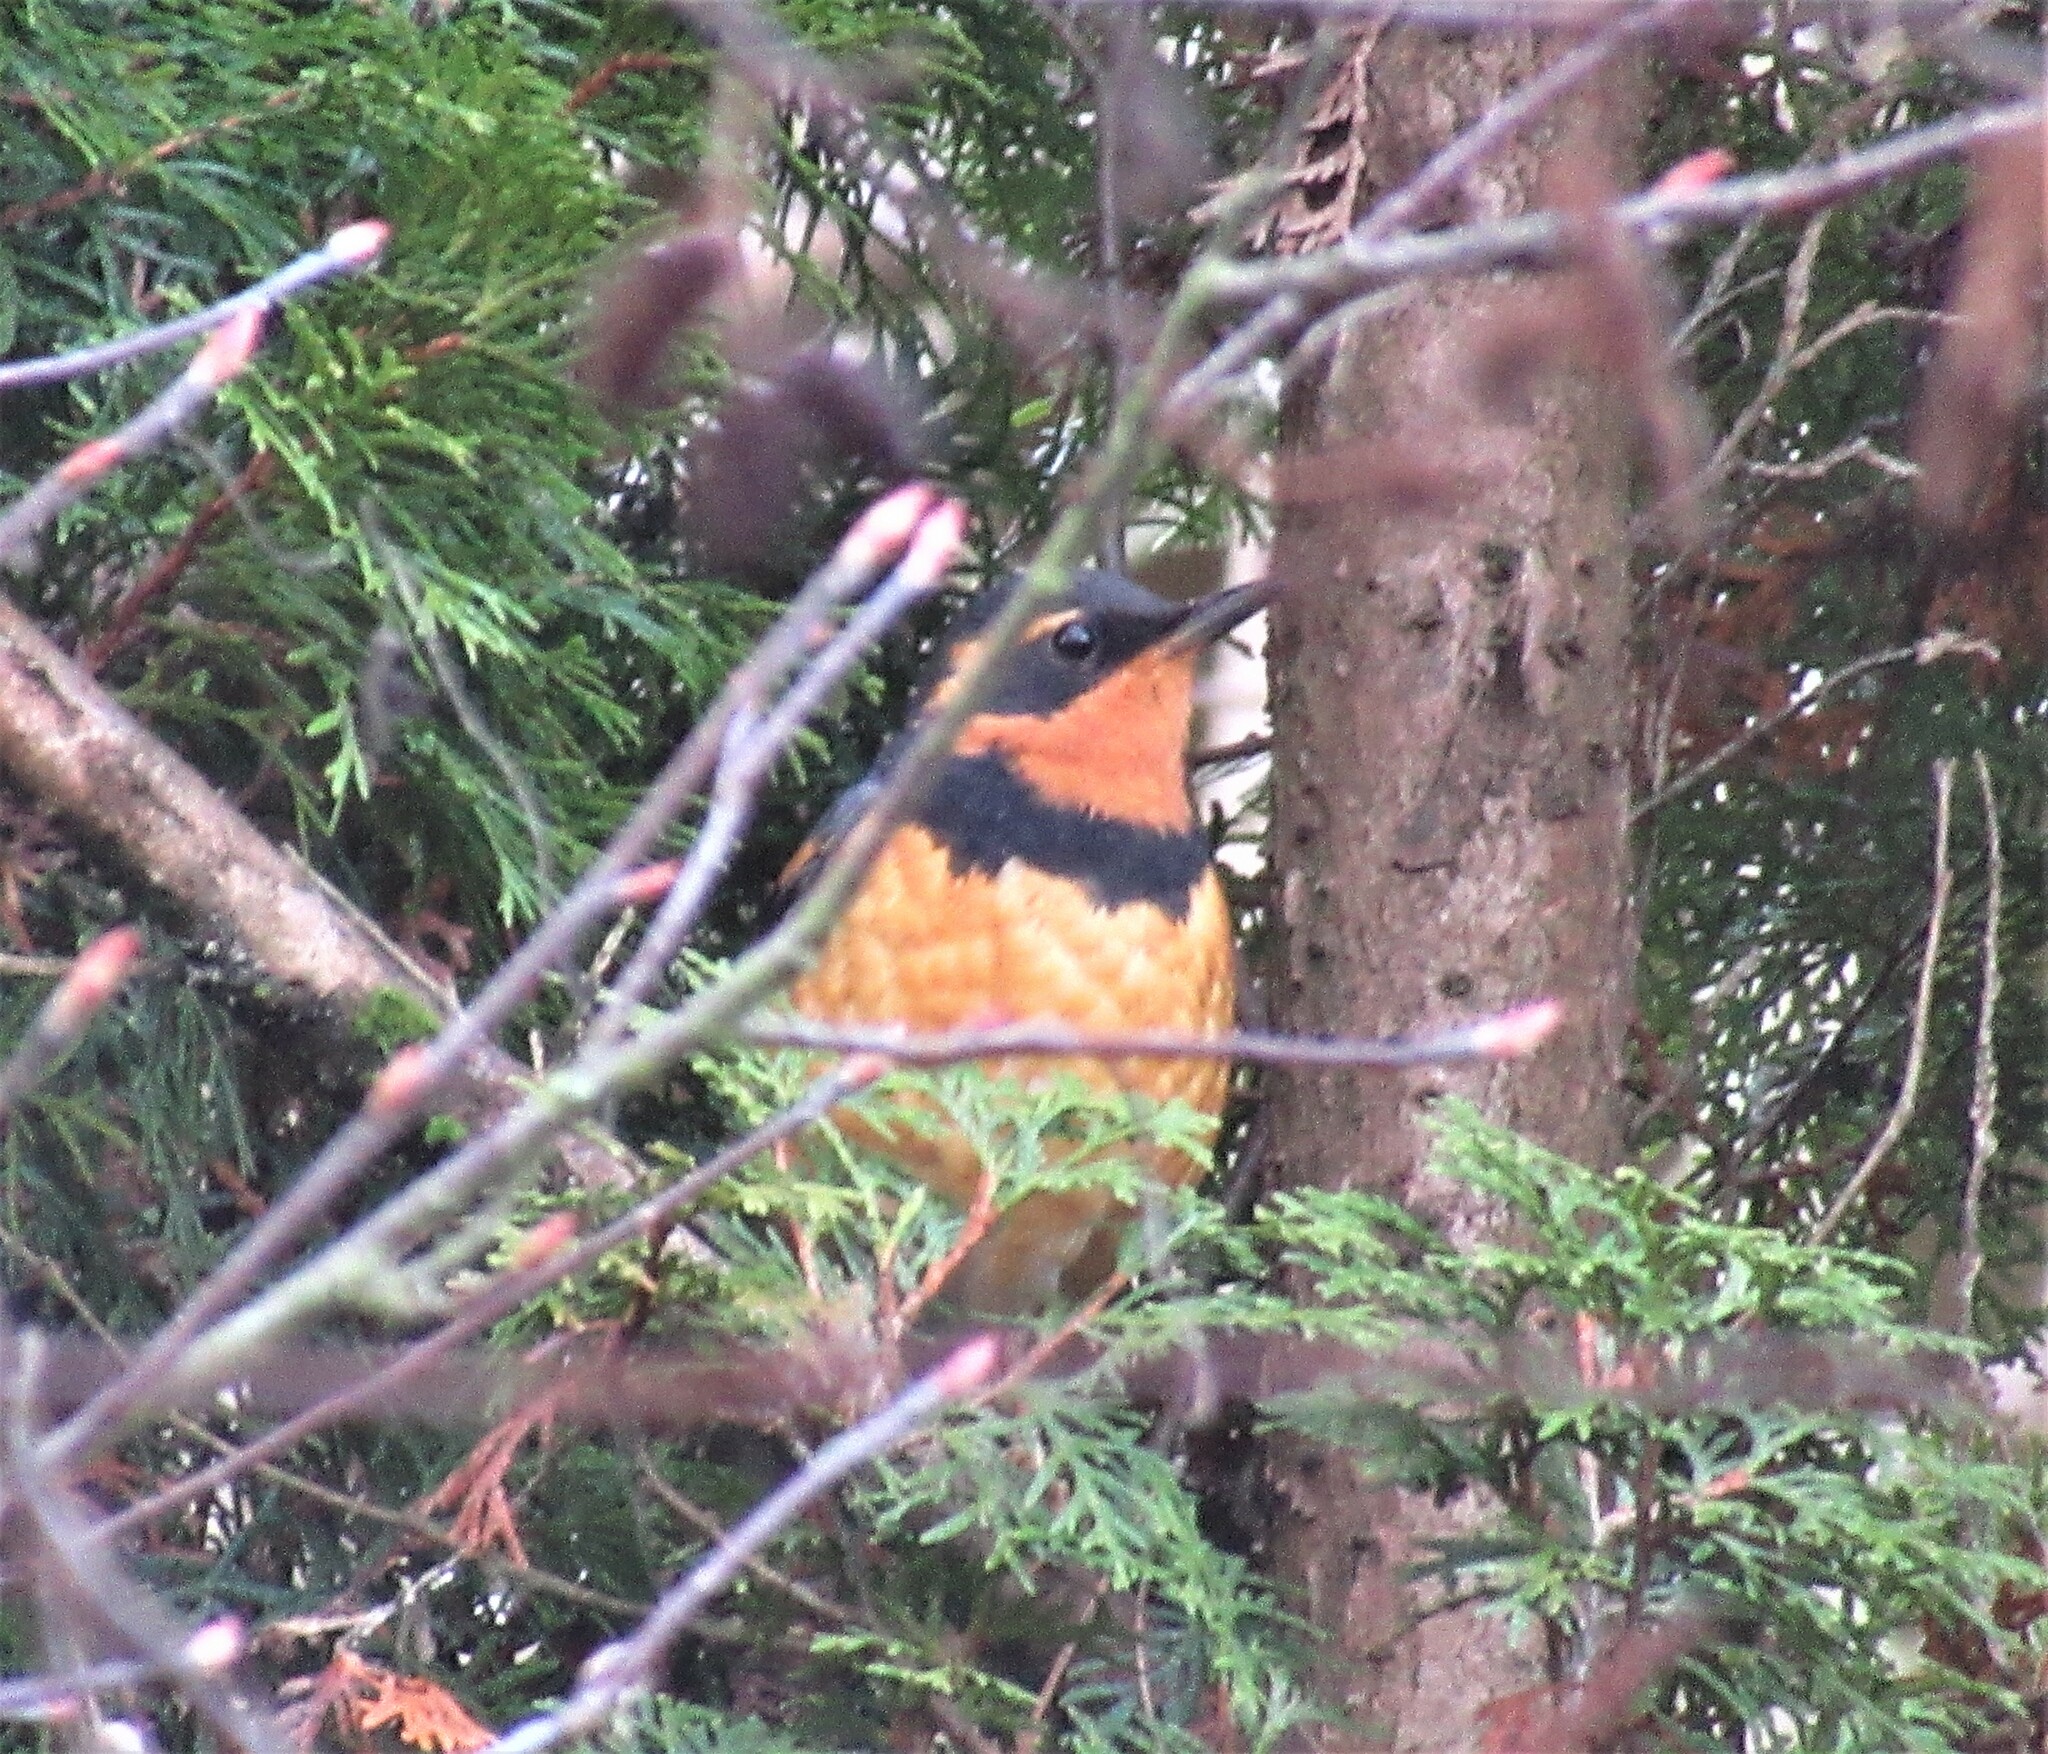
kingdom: Animalia
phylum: Chordata
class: Aves
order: Passeriformes
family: Turdidae
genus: Ixoreus
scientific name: Ixoreus naevius
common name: Varied thrush
